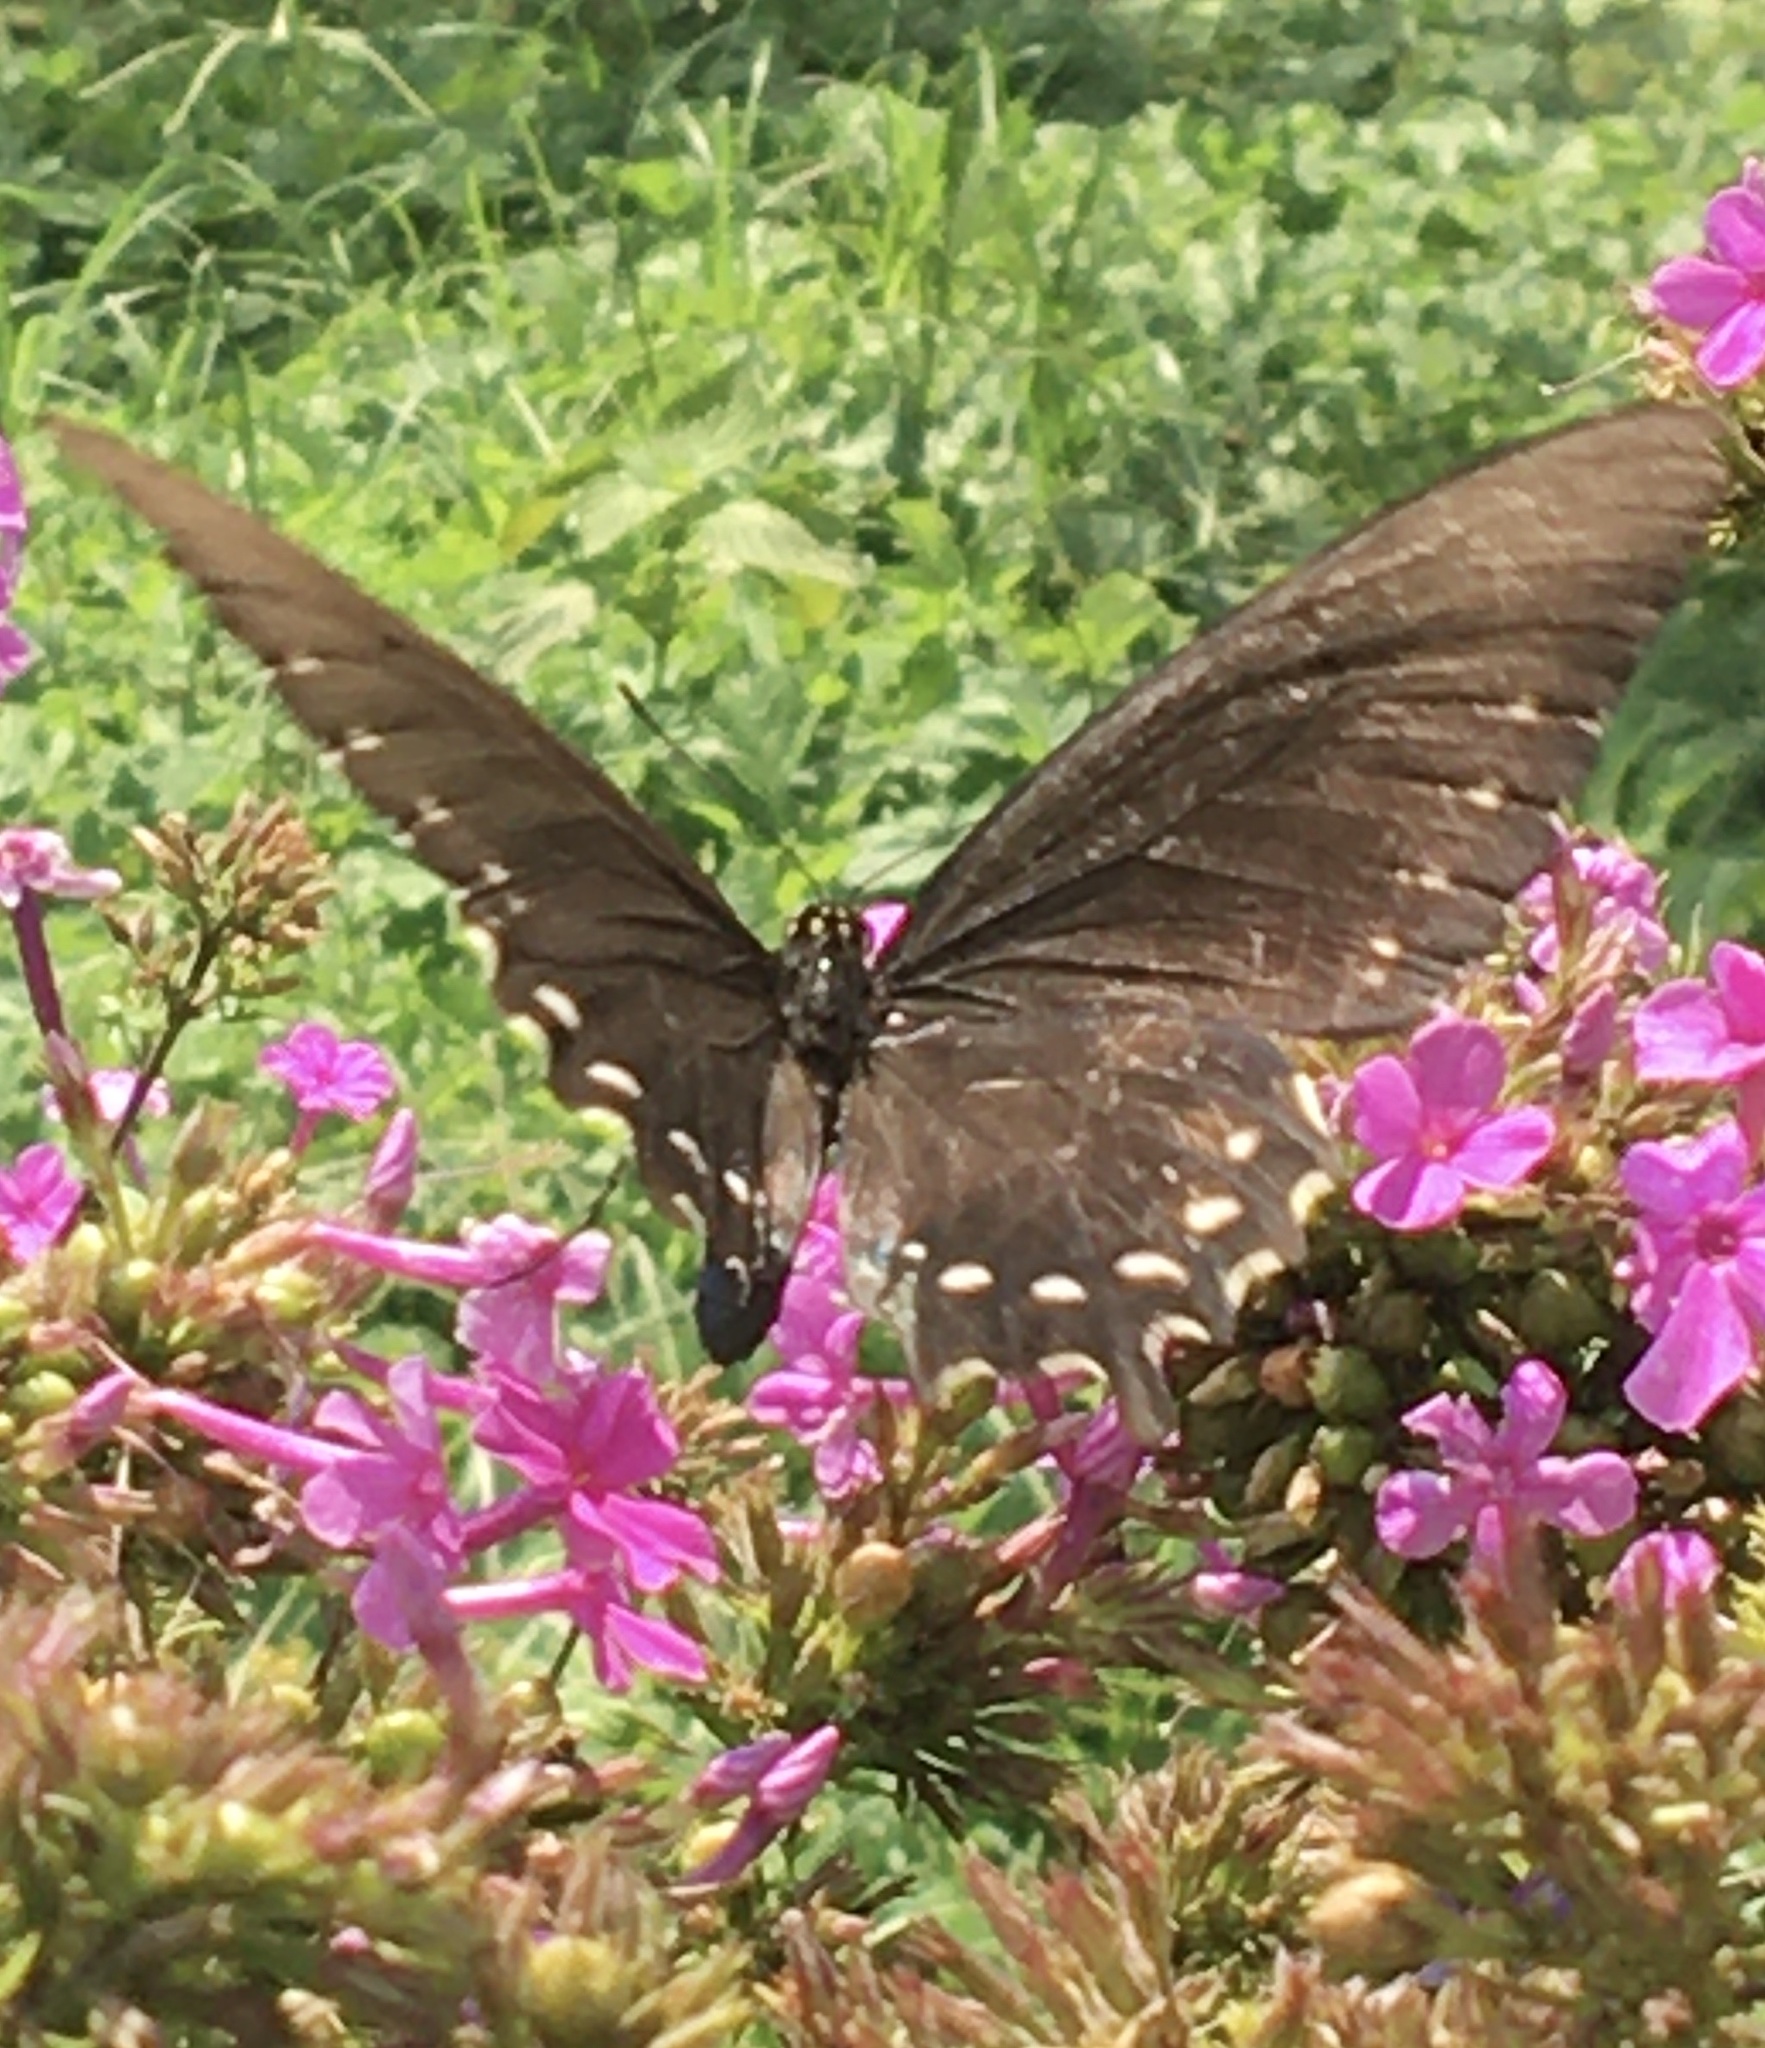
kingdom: Animalia
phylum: Arthropoda
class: Insecta
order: Lepidoptera
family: Papilionidae
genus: Battus
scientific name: Battus philenor
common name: Pipevine swallowtail
